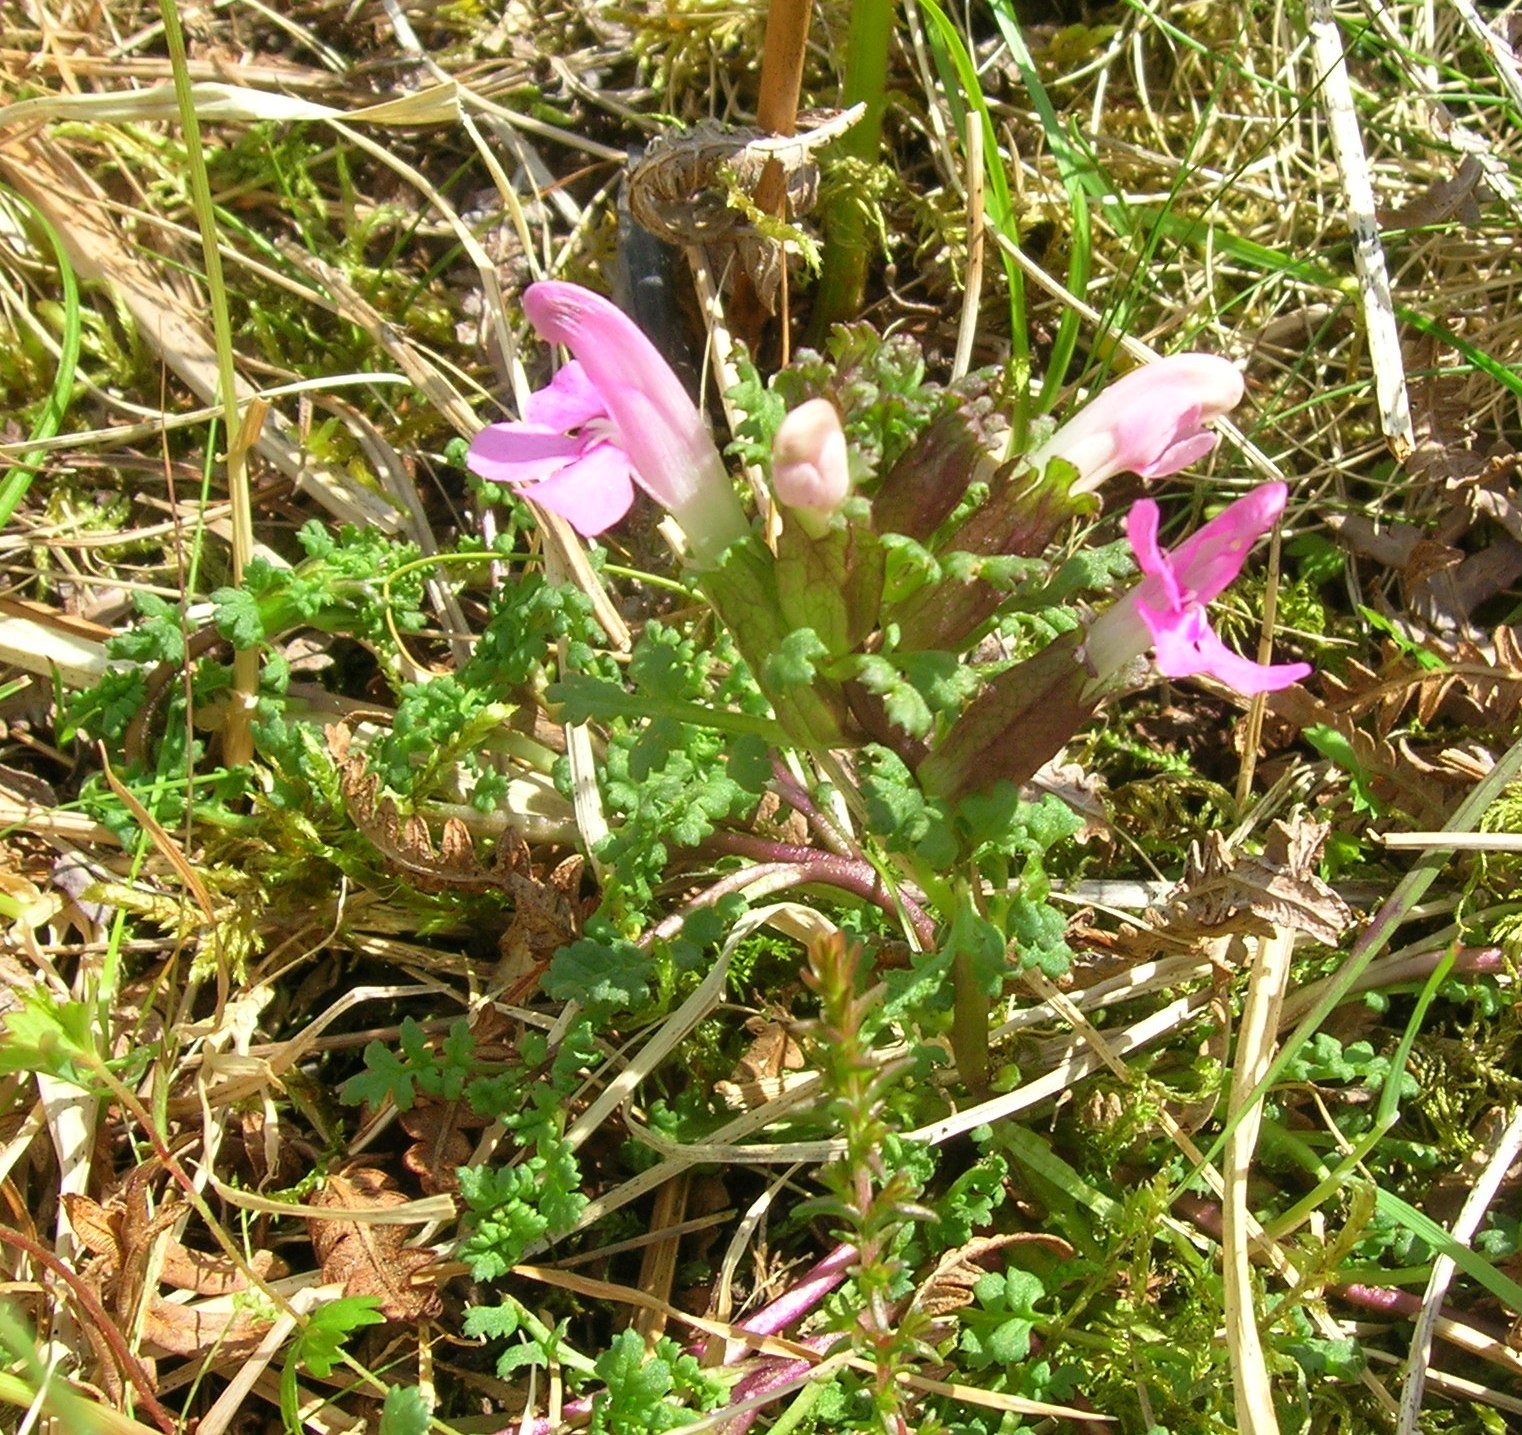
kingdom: Plantae
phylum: Tracheophyta
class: Magnoliopsida
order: Lamiales
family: Orobanchaceae
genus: Pedicularis
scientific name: Pedicularis sylvatica
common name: Lousewort
